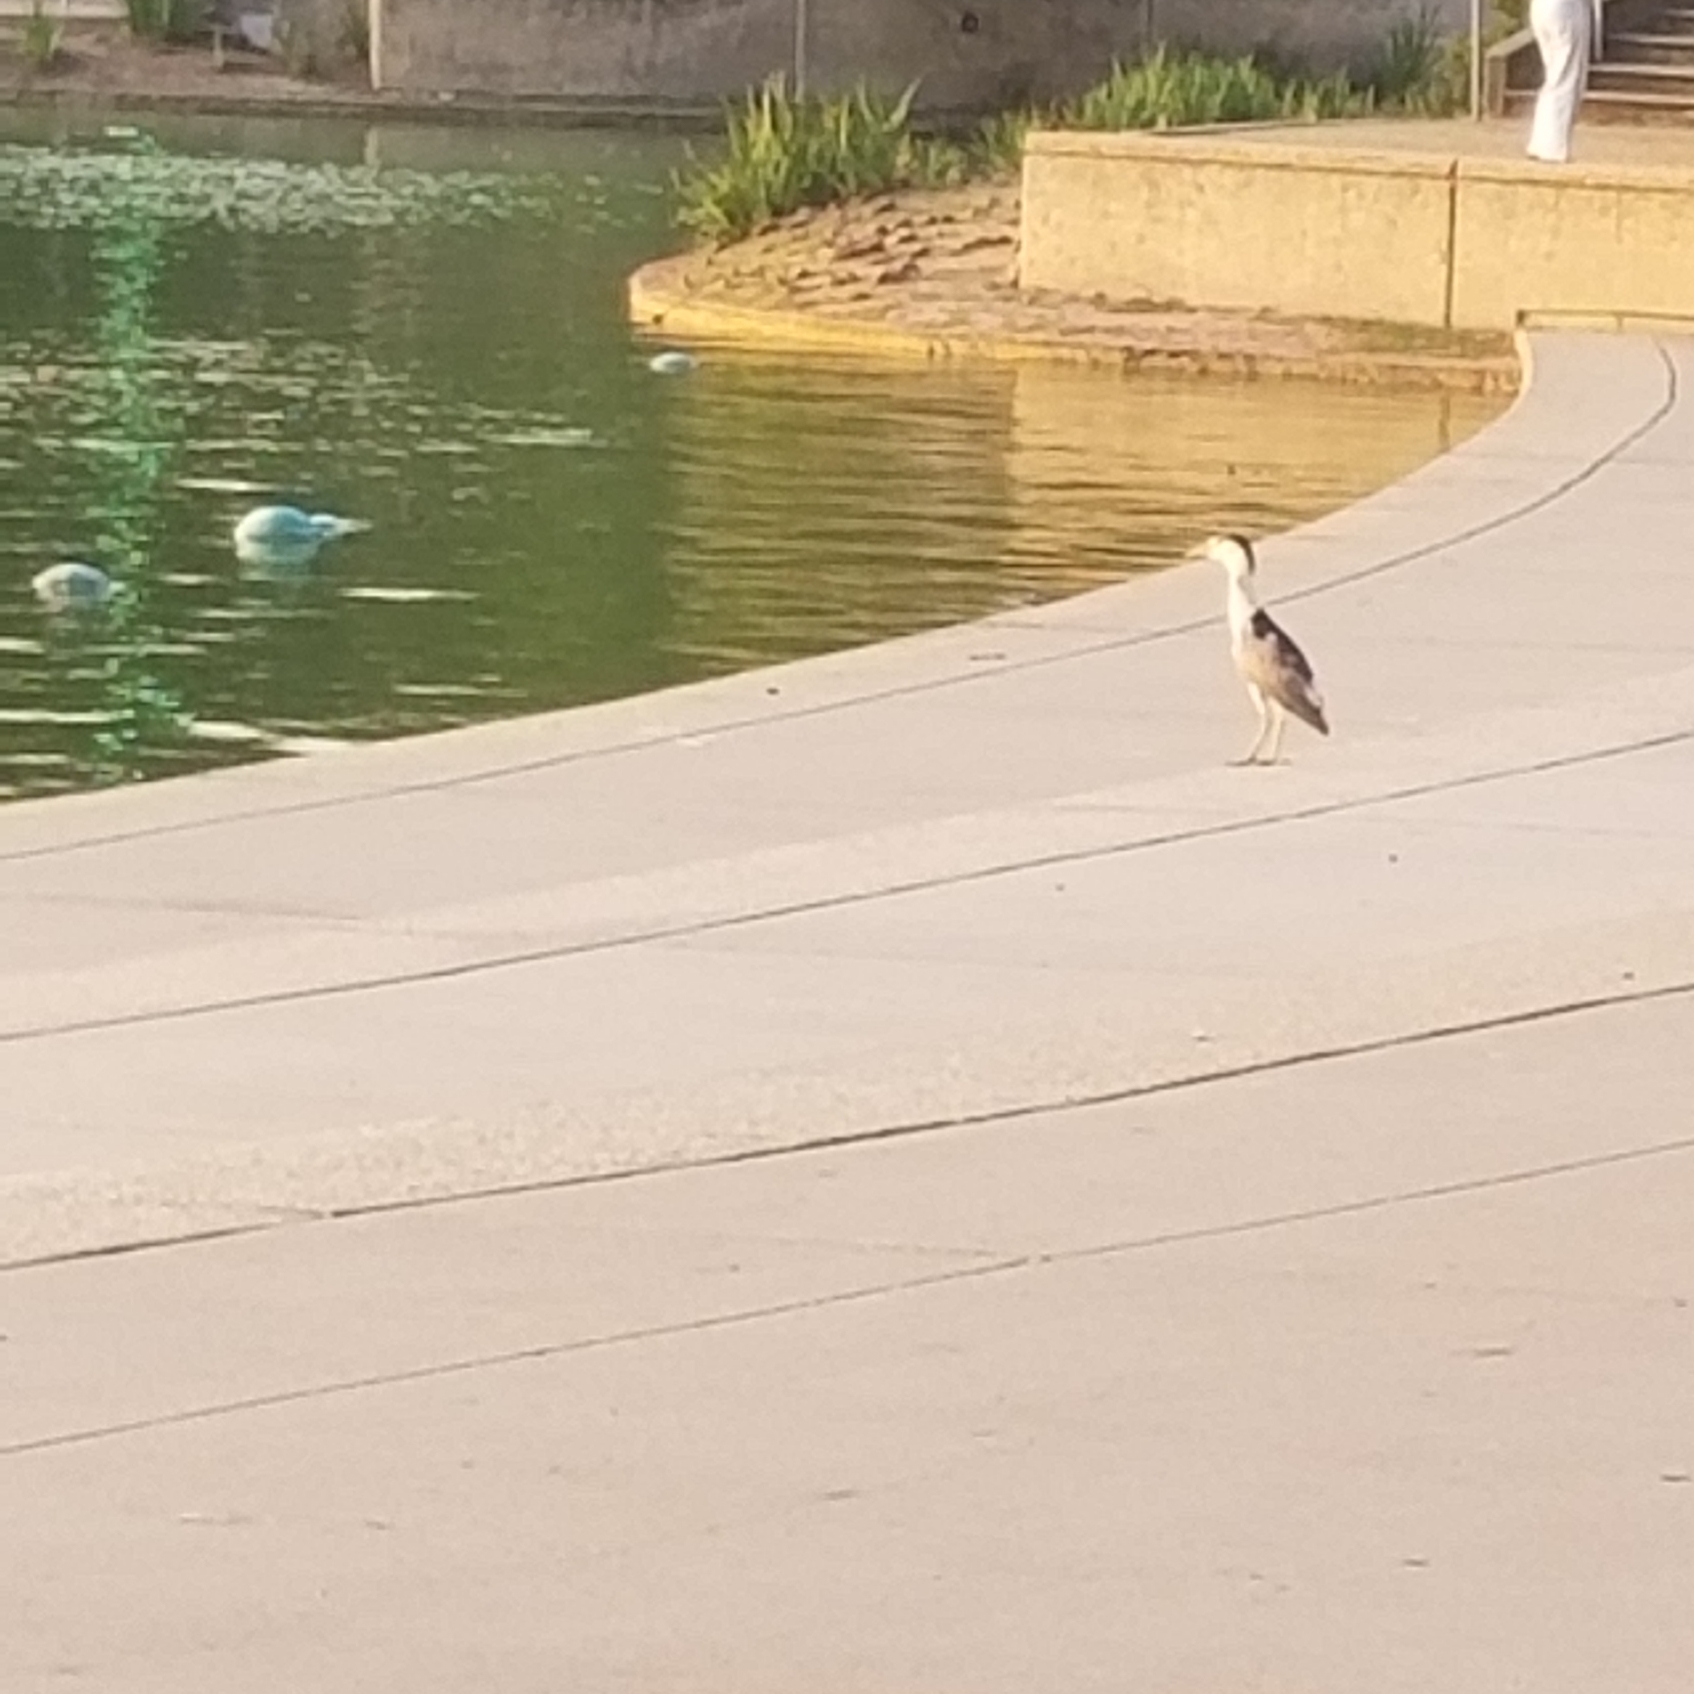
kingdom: Animalia
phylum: Chordata
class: Aves
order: Pelecaniformes
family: Ardeidae
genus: Nycticorax
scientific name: Nycticorax nycticorax
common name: Black-crowned night heron
